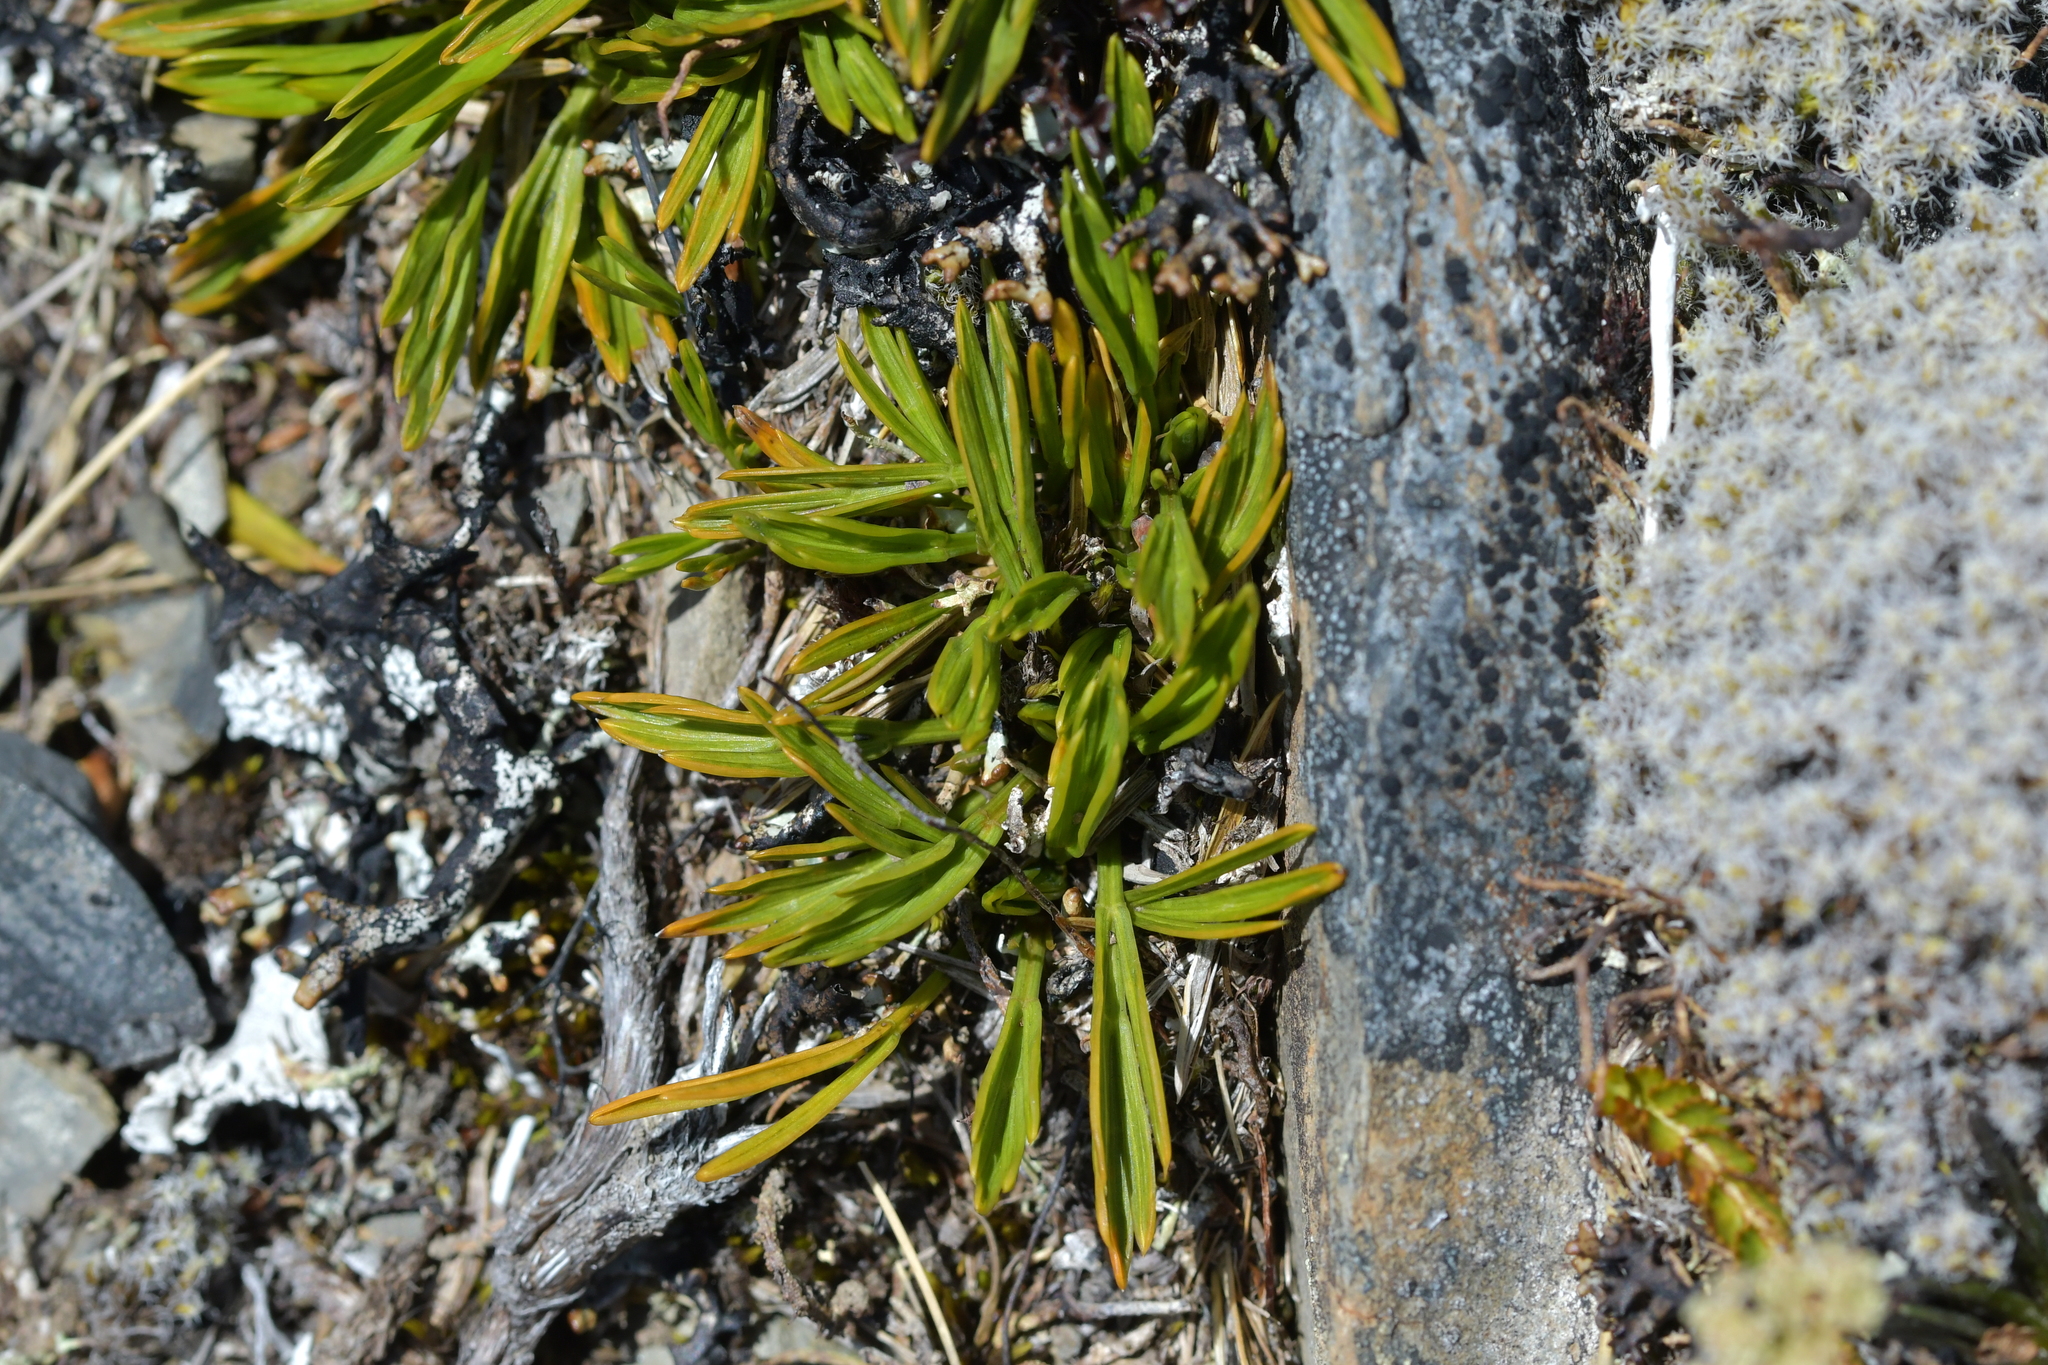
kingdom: Plantae
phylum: Tracheophyta
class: Magnoliopsida
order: Apiales
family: Apiaceae
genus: Aciphylla
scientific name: Aciphylla monroi
